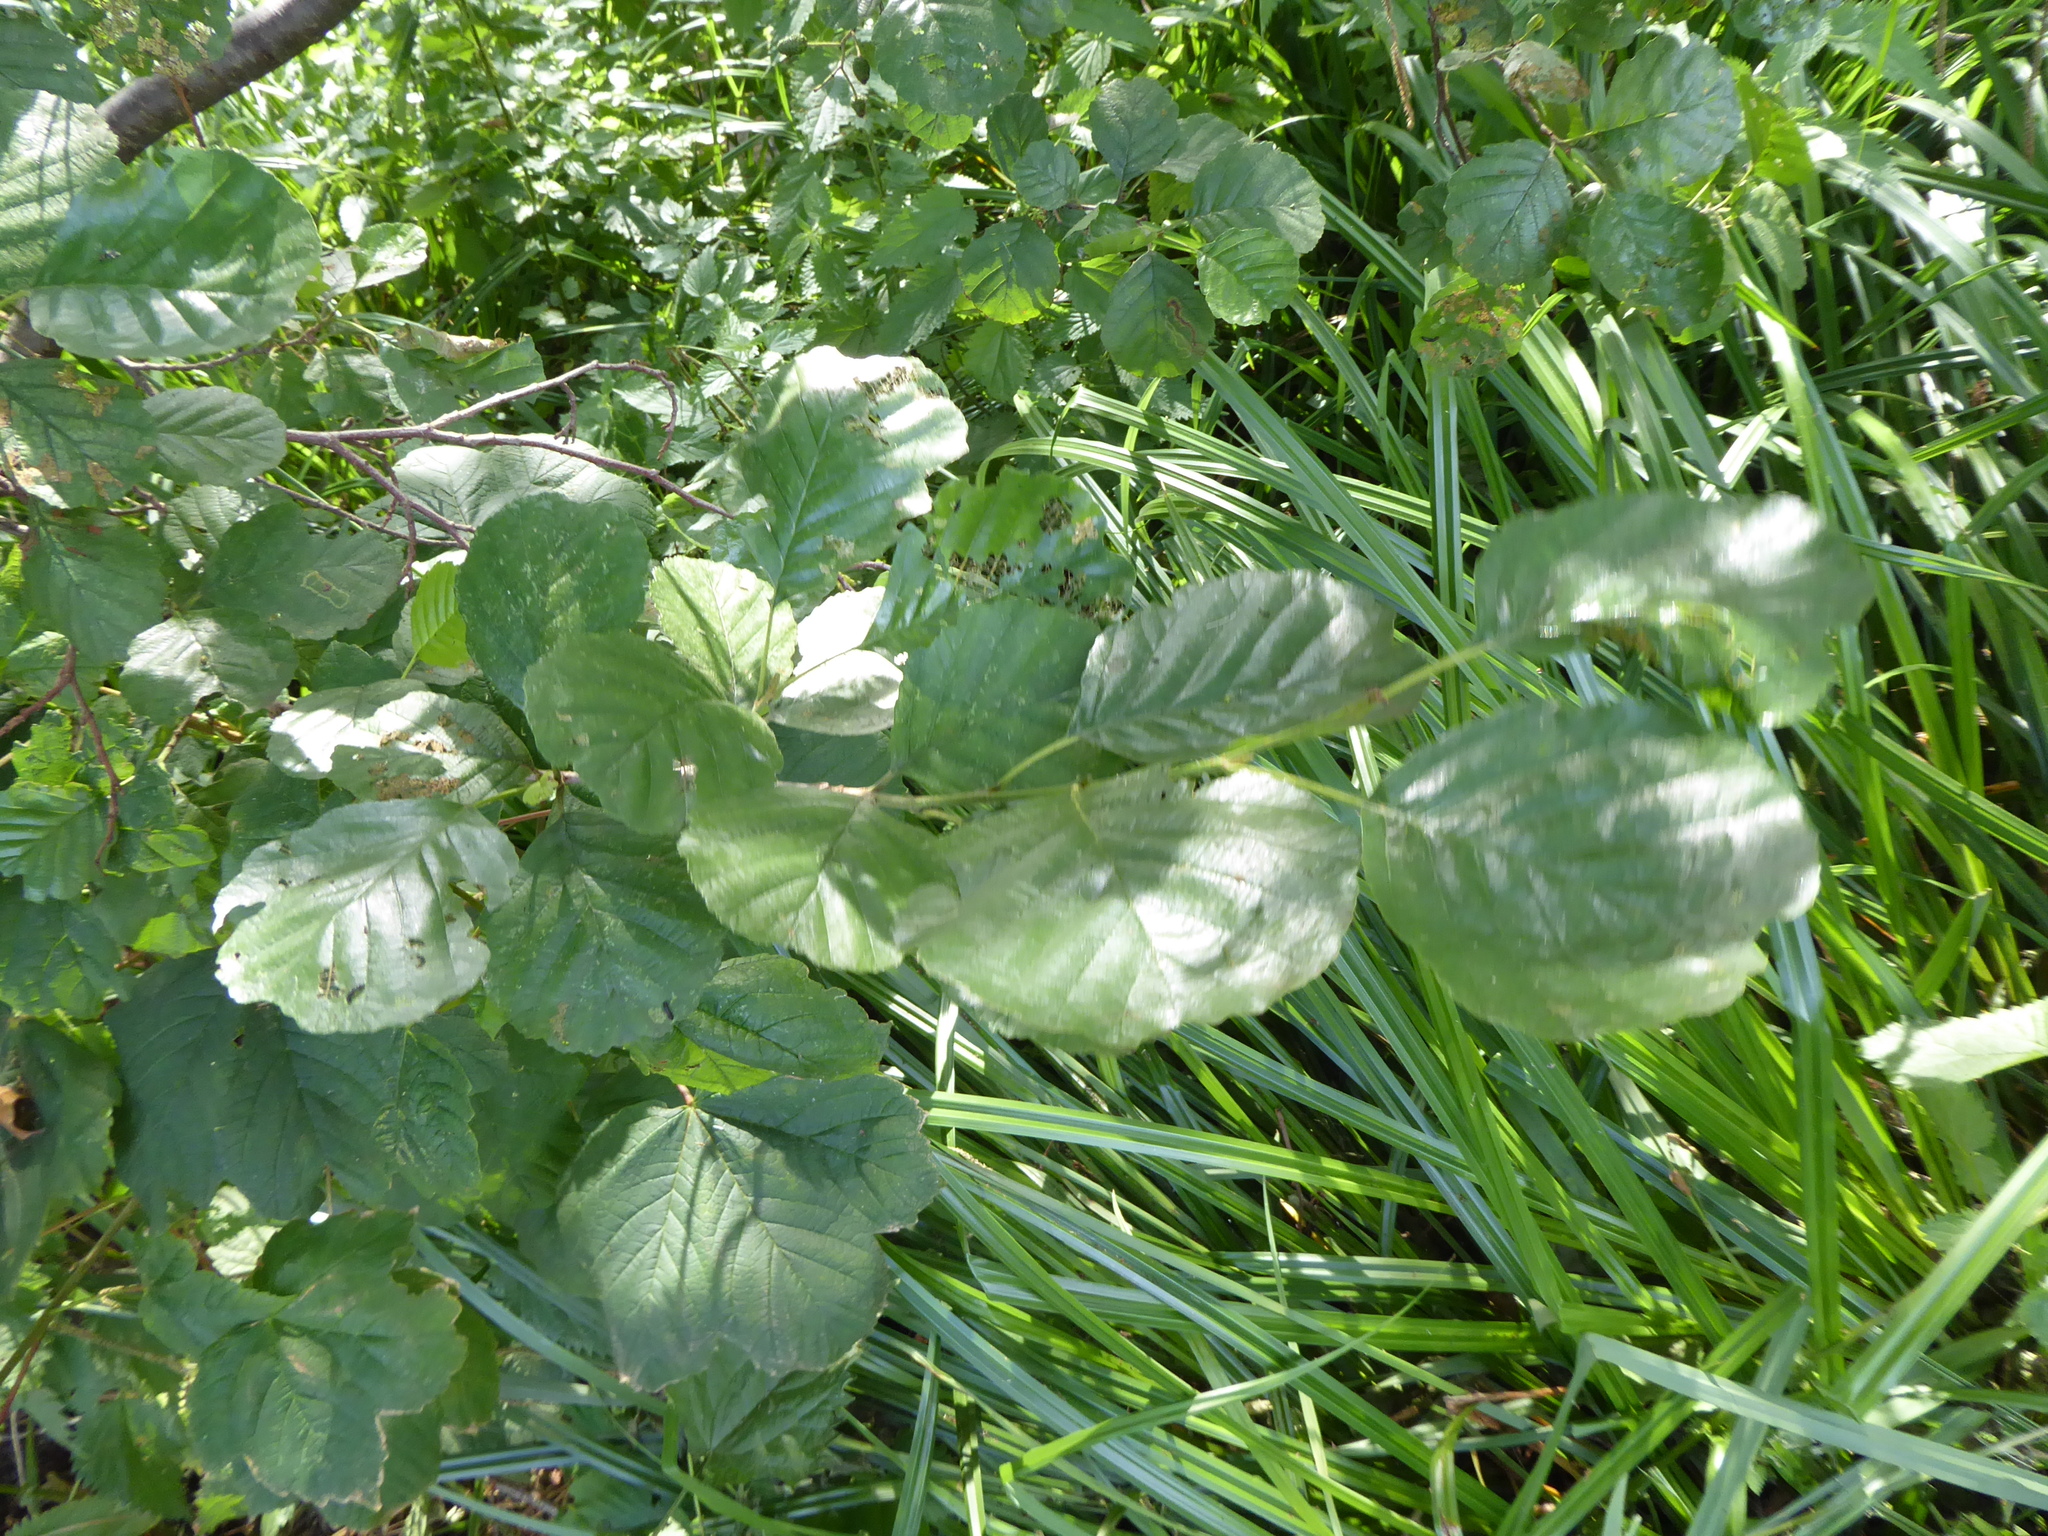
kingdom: Plantae
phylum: Tracheophyta
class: Magnoliopsida
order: Fagales
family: Betulaceae
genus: Alnus
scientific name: Alnus glutinosa
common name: Black alder
